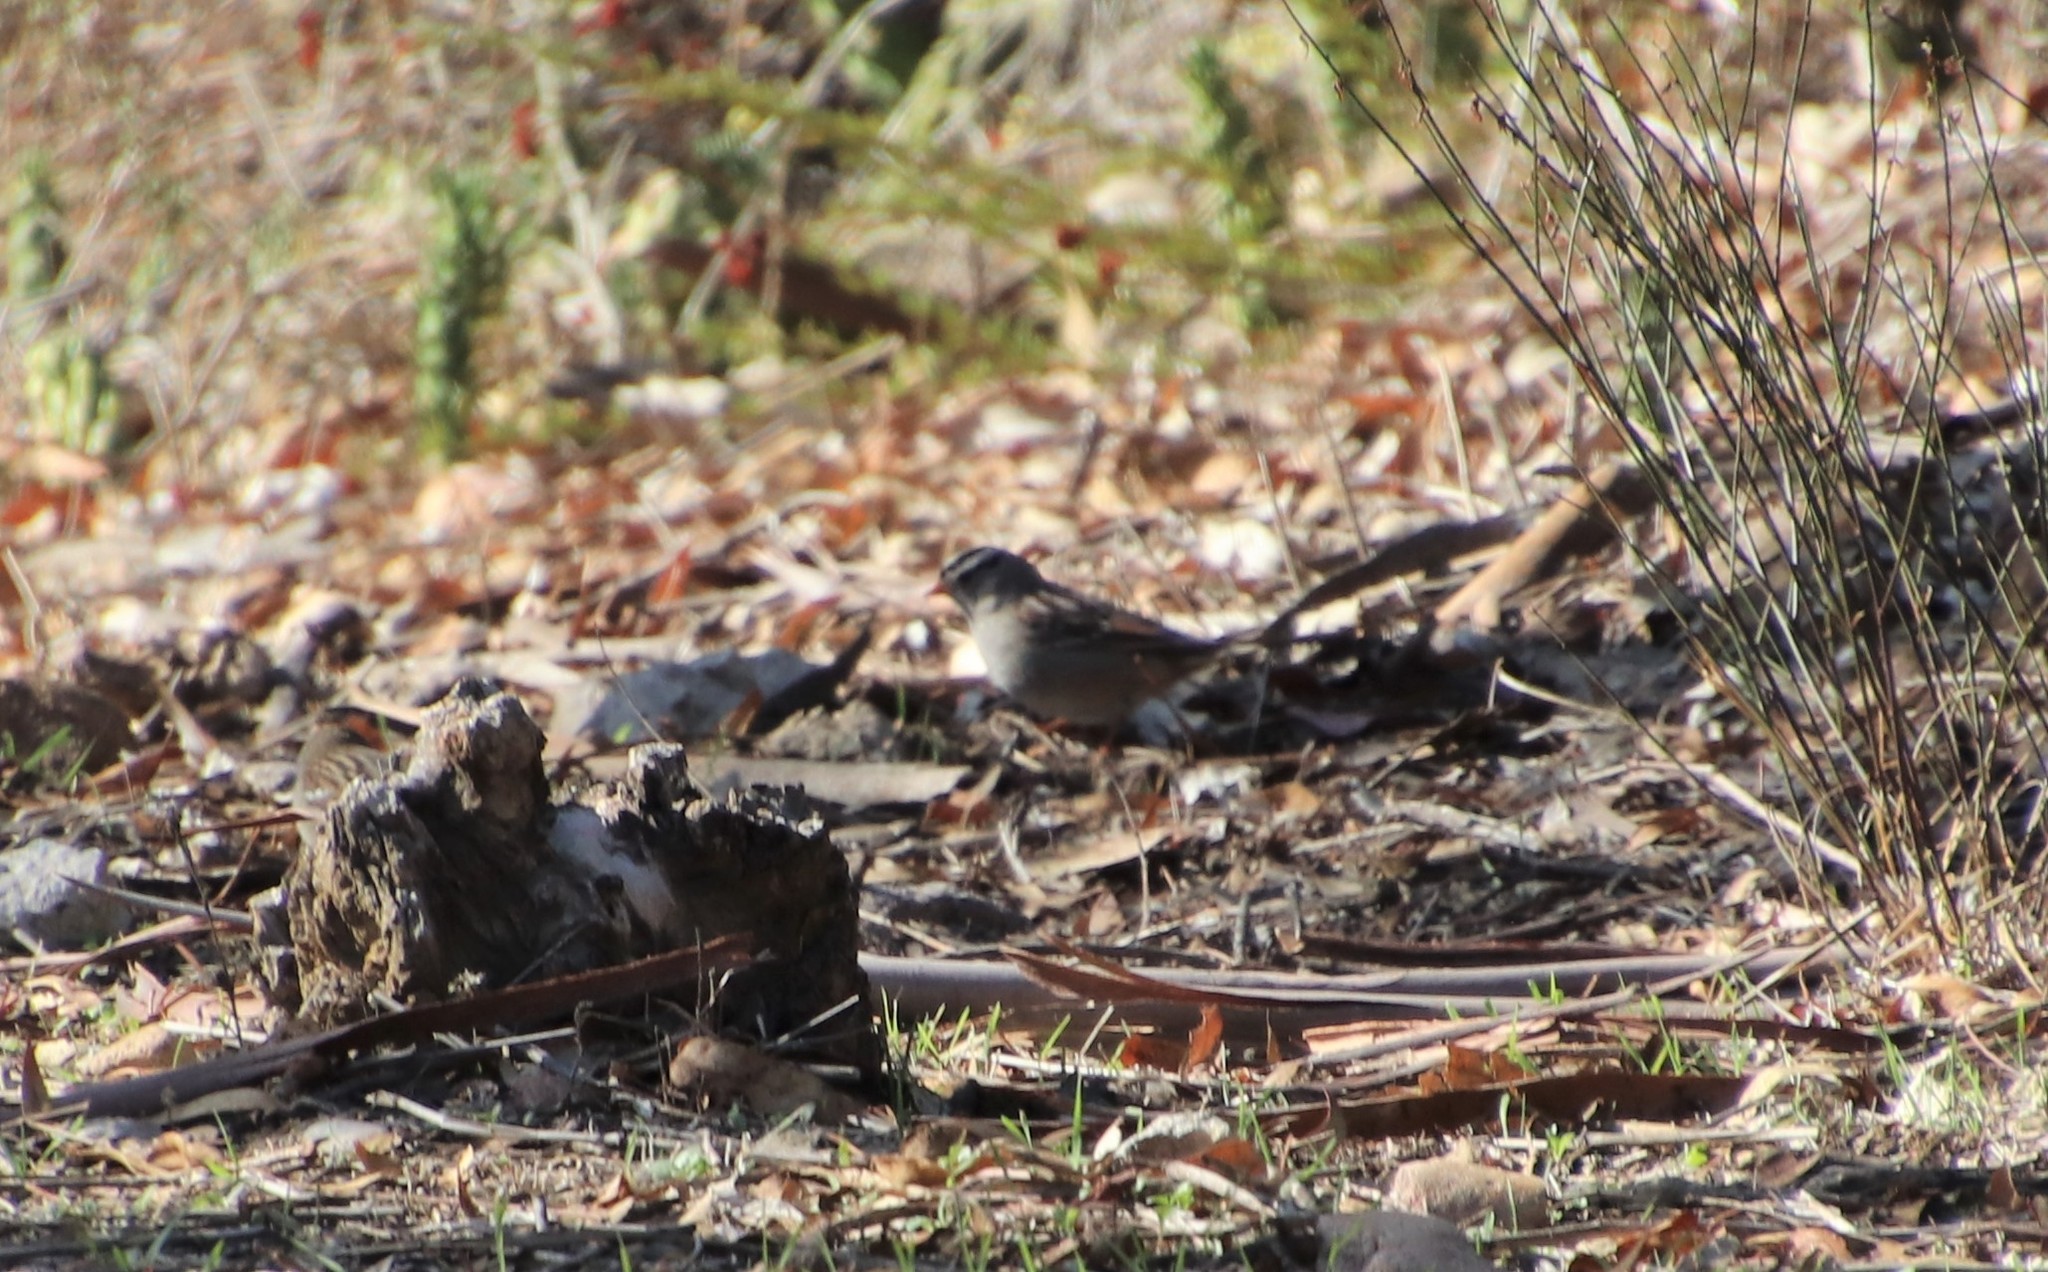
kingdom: Animalia
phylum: Chordata
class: Aves
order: Passeriformes
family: Passerellidae
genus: Zonotrichia
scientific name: Zonotrichia leucophrys
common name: White-crowned sparrow
